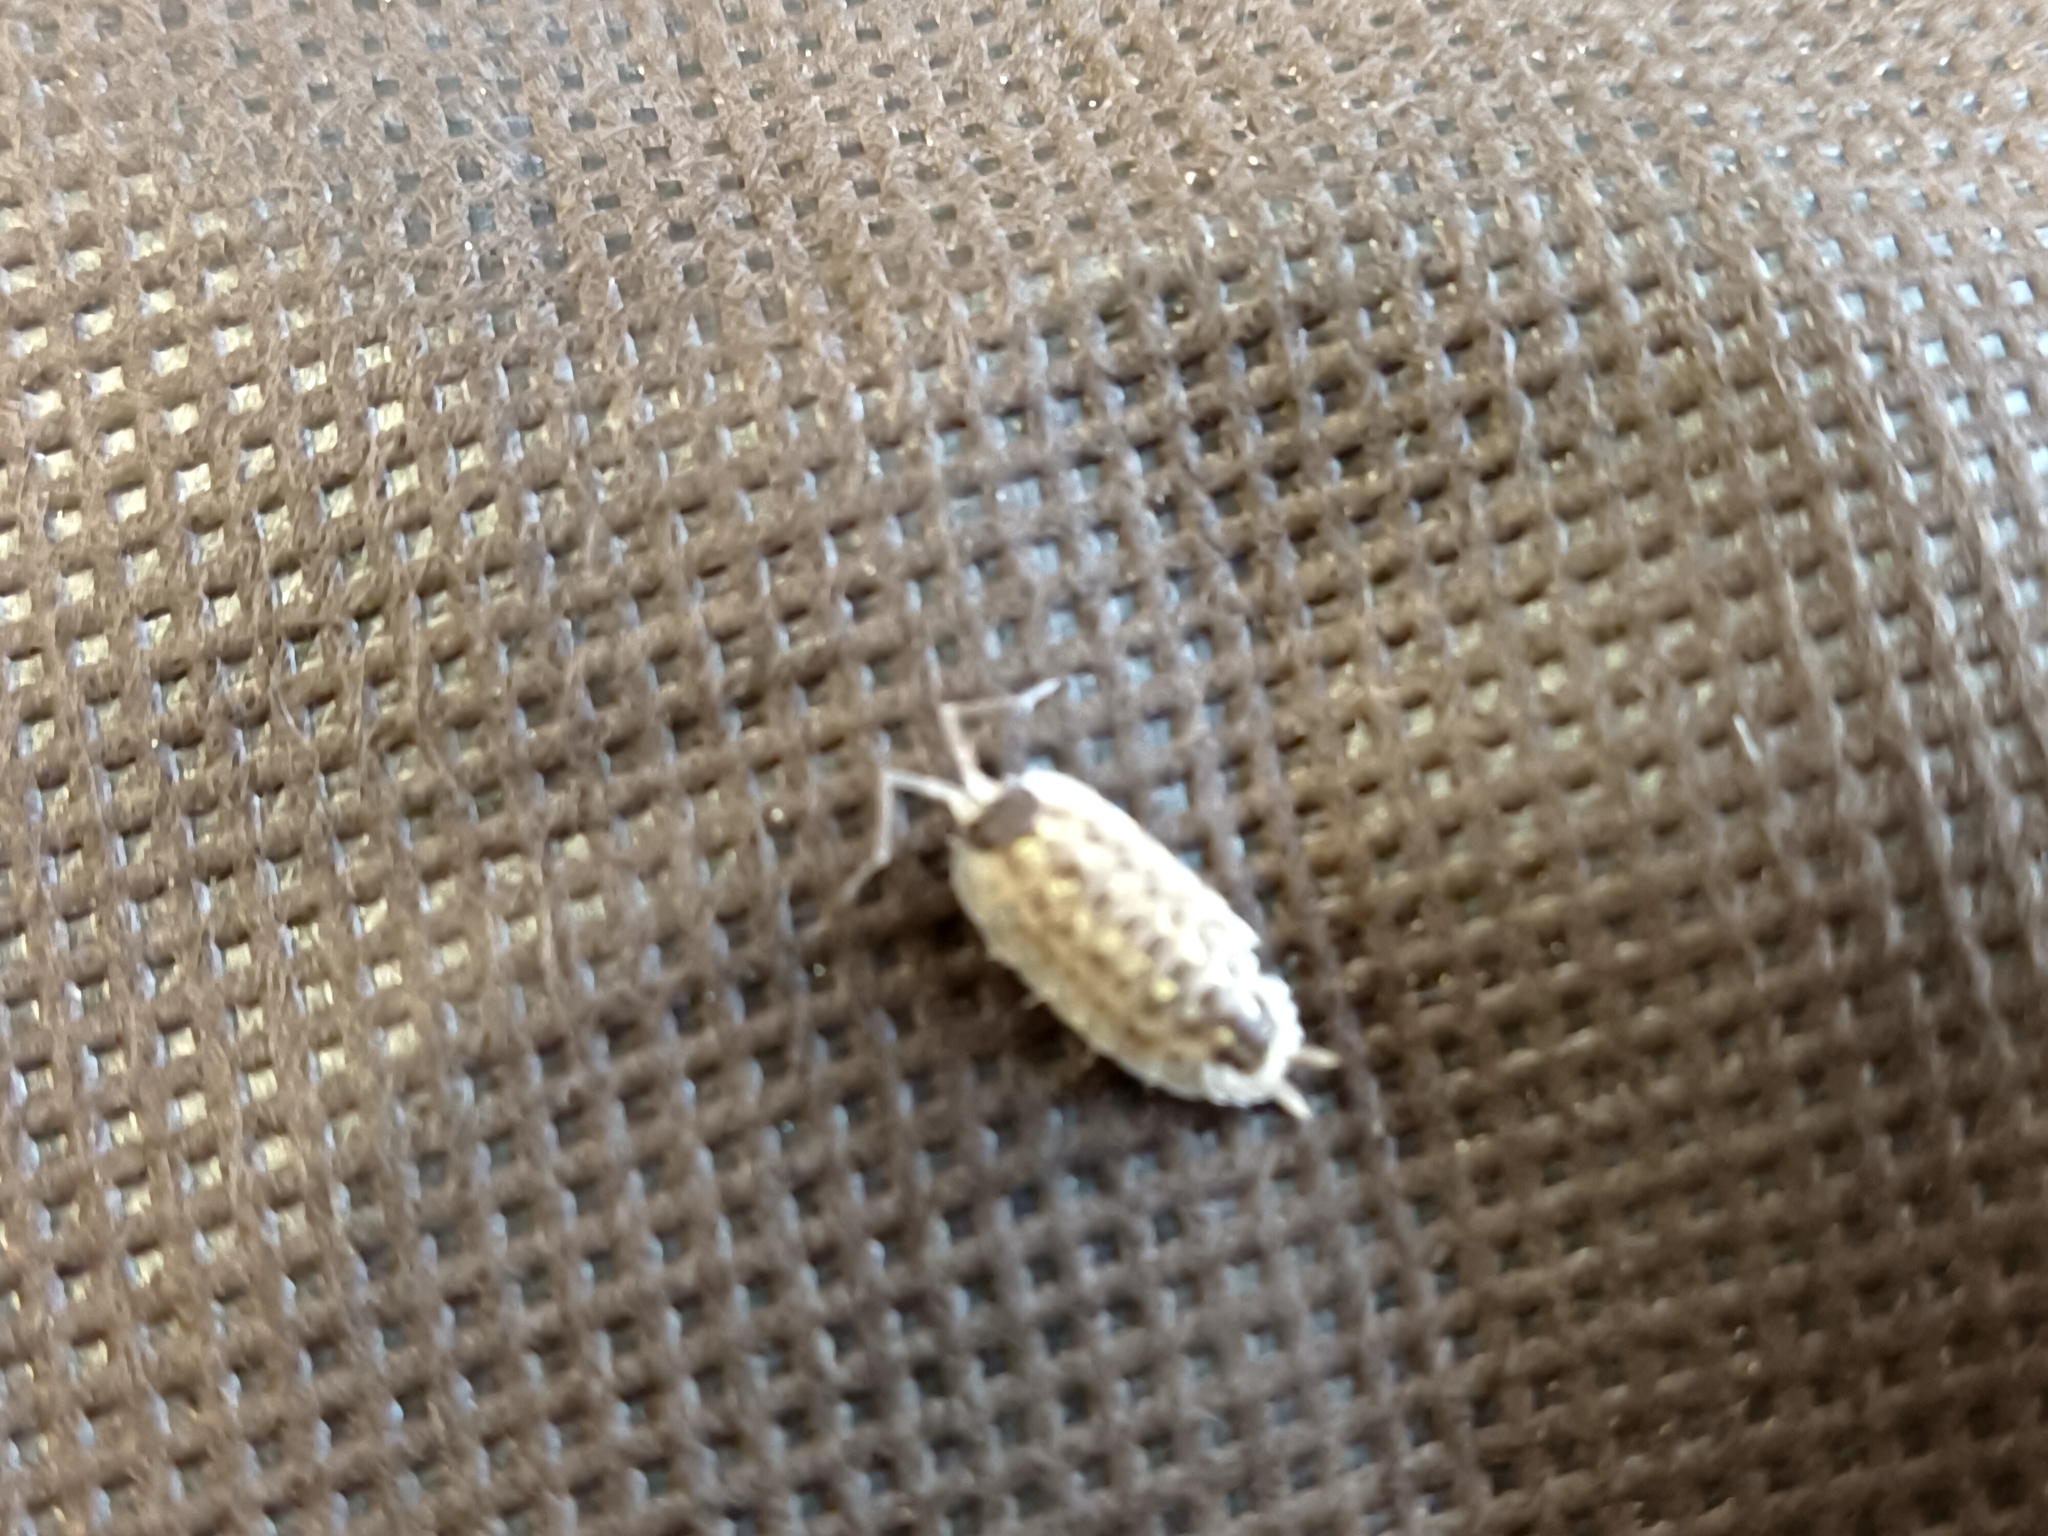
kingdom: Animalia
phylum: Arthropoda
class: Malacostraca
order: Isopoda
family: Porcellionidae
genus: Porcellio
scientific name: Porcellio spinicornis
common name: Painted woodlouse
